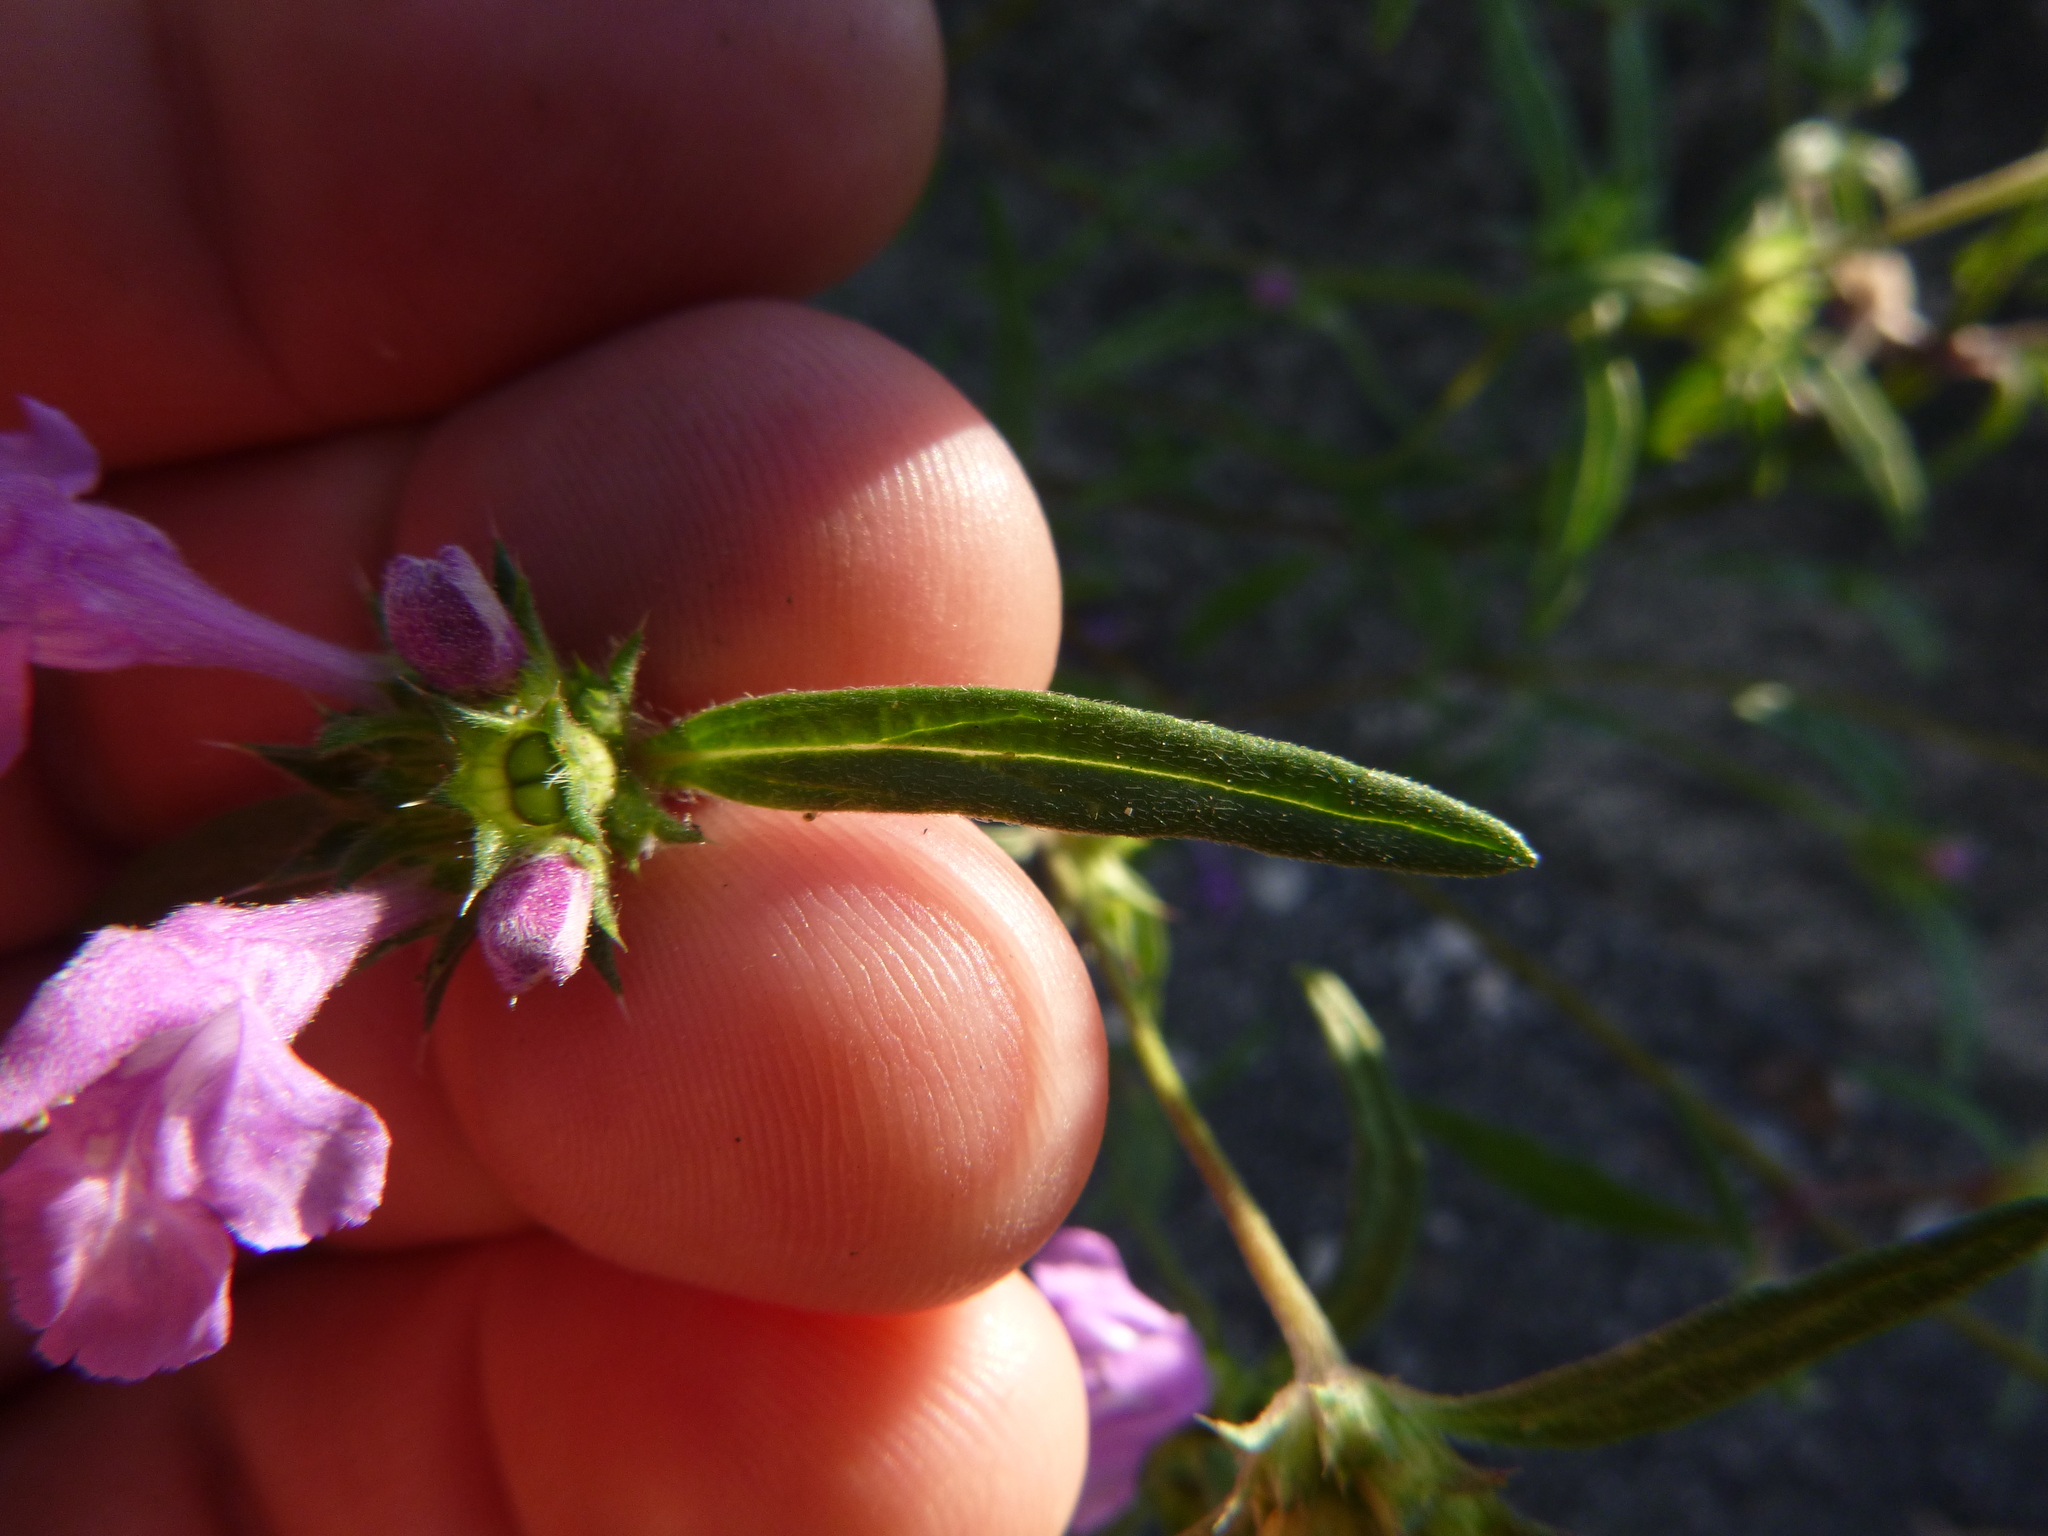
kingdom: Plantae
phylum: Tracheophyta
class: Magnoliopsida
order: Lamiales
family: Lamiaceae
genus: Galeopsis
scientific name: Galeopsis angustifolia
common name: Red hemp-nettle
